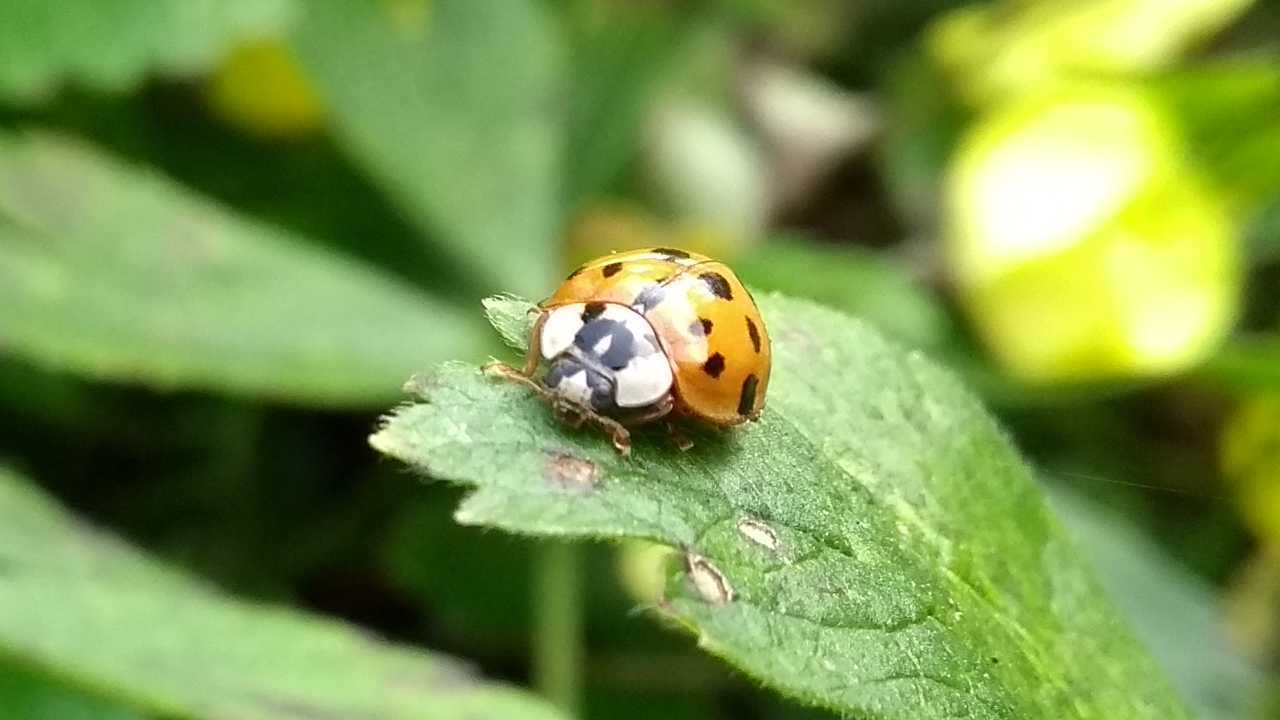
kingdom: Animalia
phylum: Arthropoda
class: Insecta
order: Coleoptera
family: Coccinellidae
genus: Harmonia
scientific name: Harmonia axyridis
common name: Harlequin ladybird
